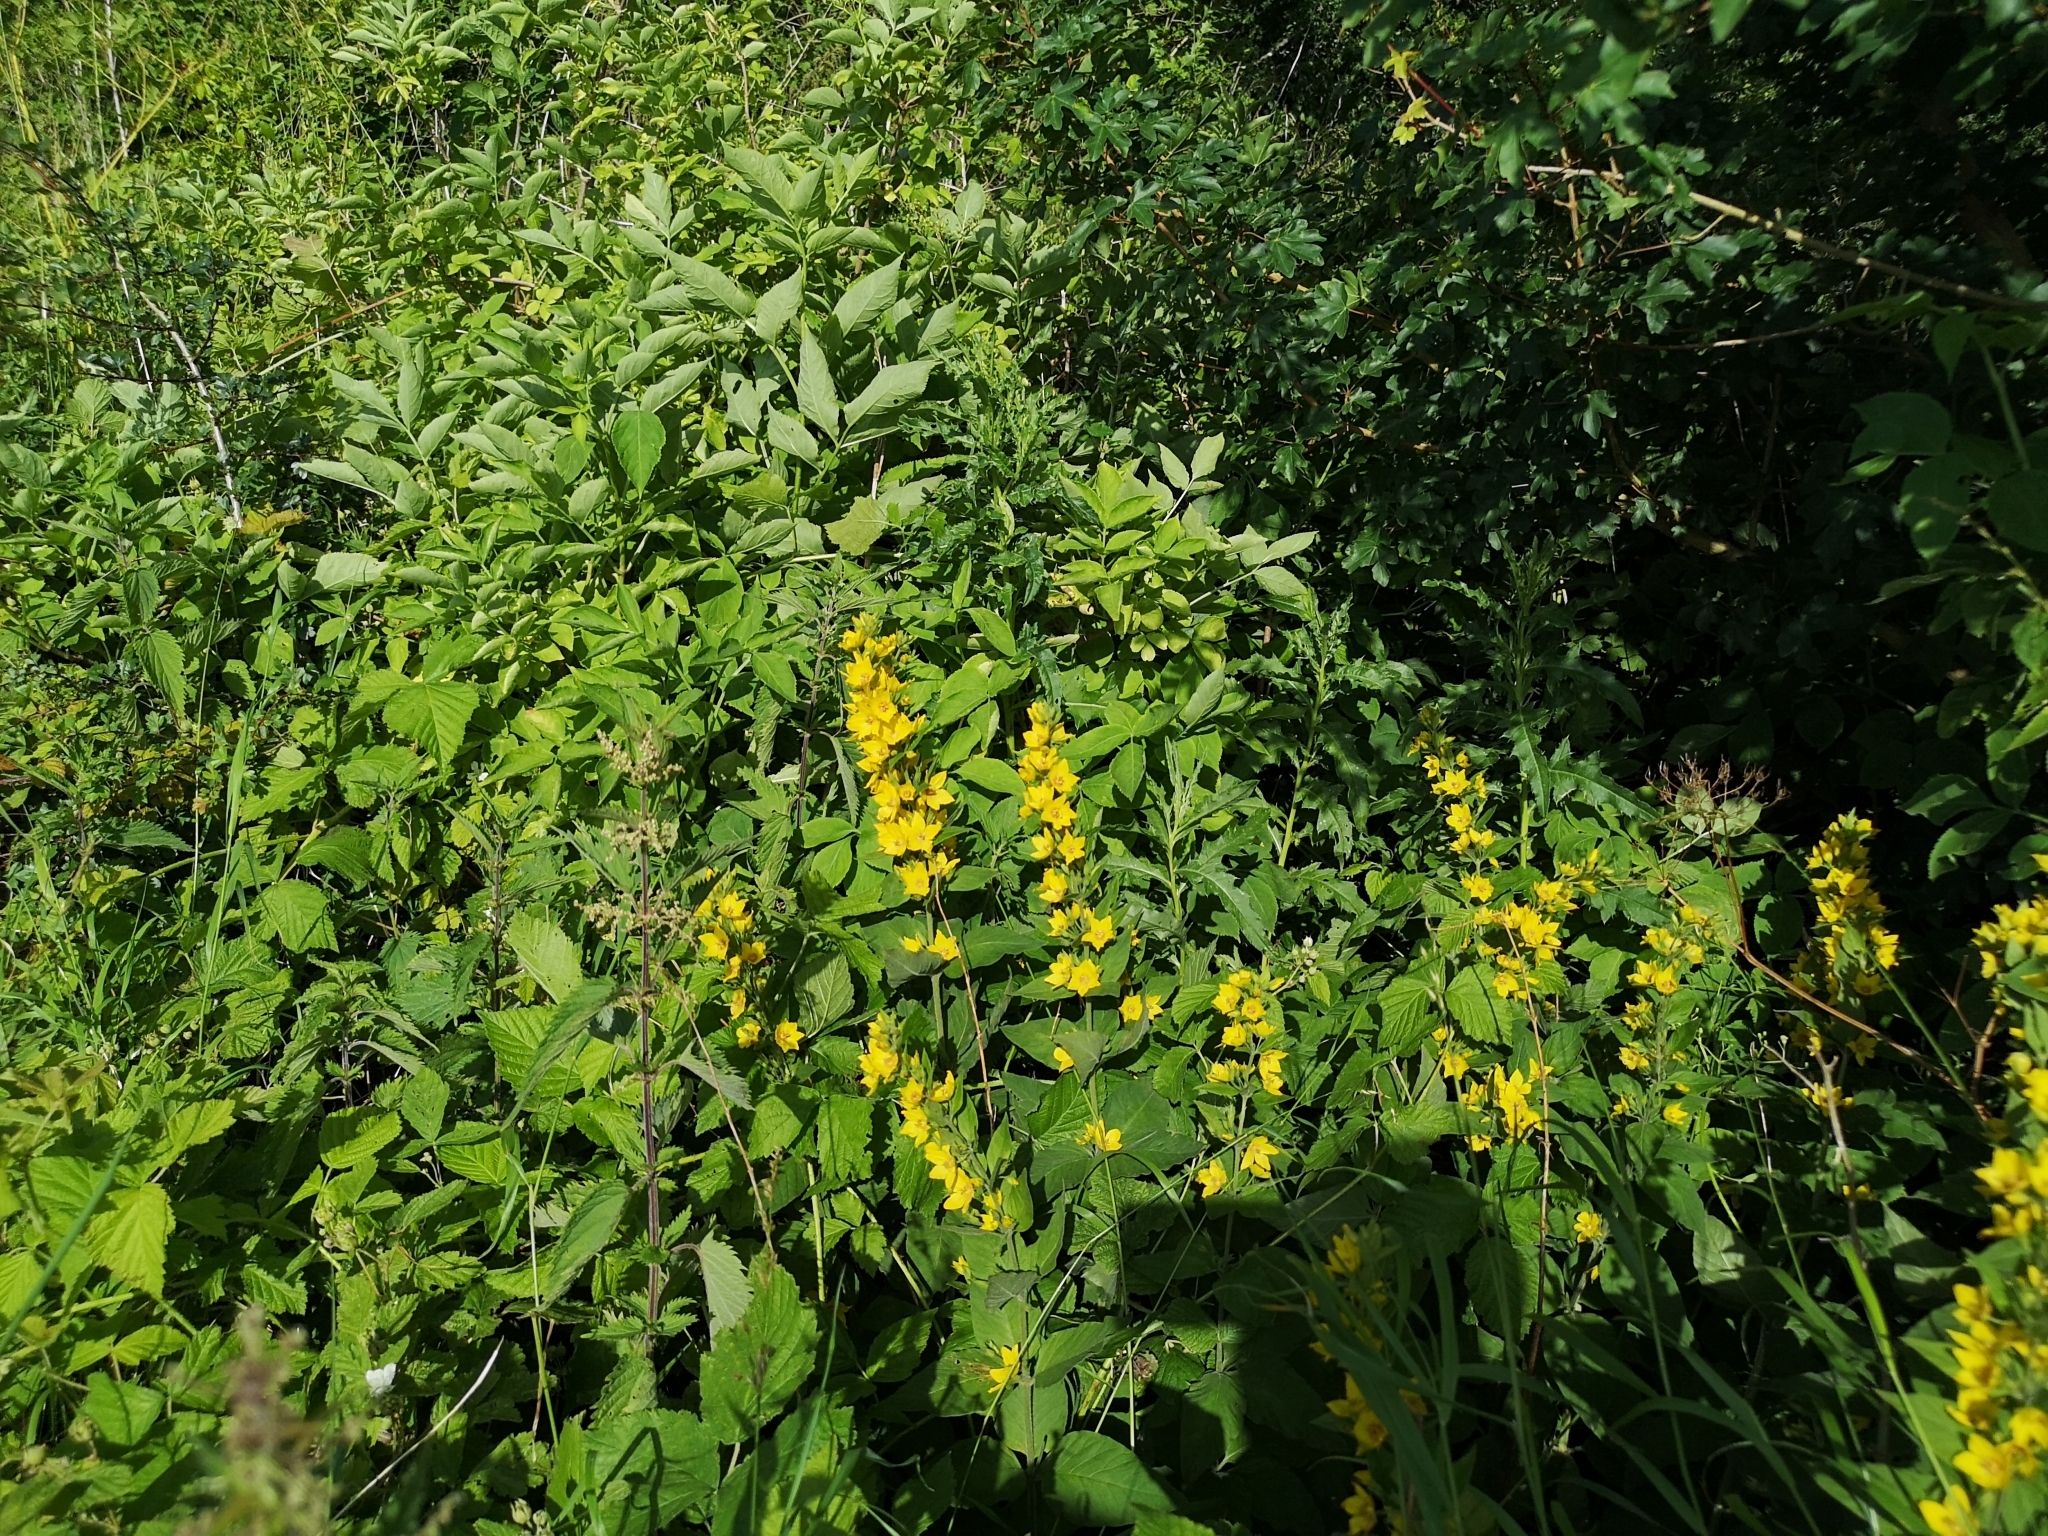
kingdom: Plantae
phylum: Tracheophyta
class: Magnoliopsida
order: Ericales
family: Primulaceae
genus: Lysimachia
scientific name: Lysimachia punctata
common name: Dotted loosestrife
